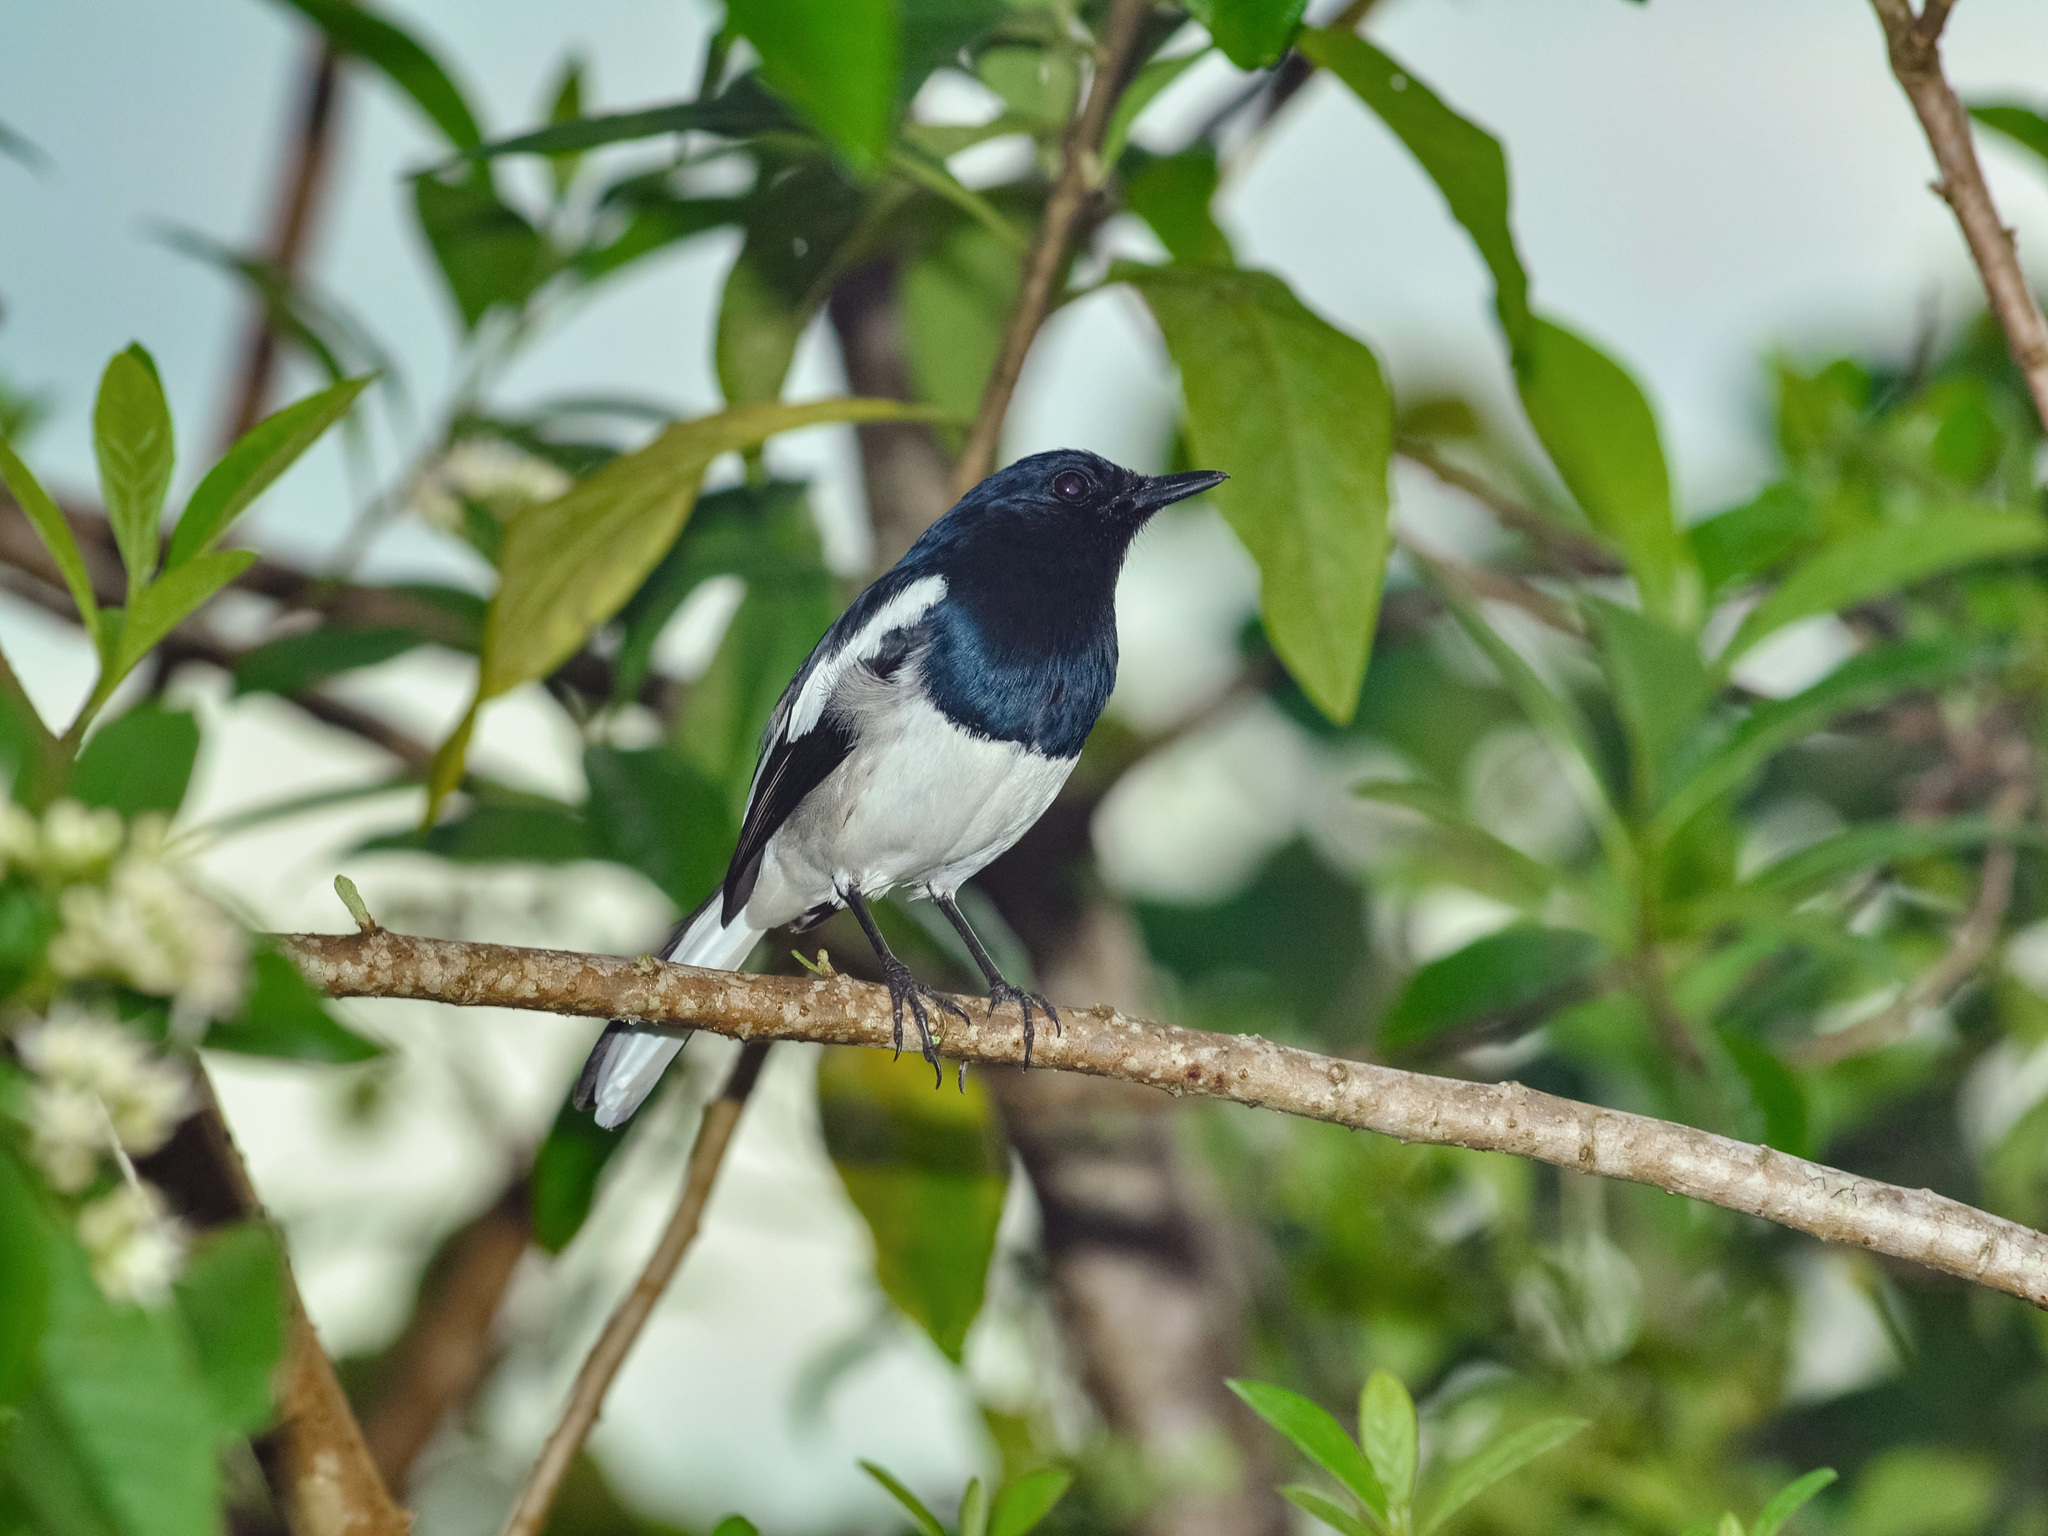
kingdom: Animalia
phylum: Chordata
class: Aves
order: Passeriformes
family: Muscicapidae
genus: Copsychus
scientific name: Copsychus saularis
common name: Oriental magpie-robin
